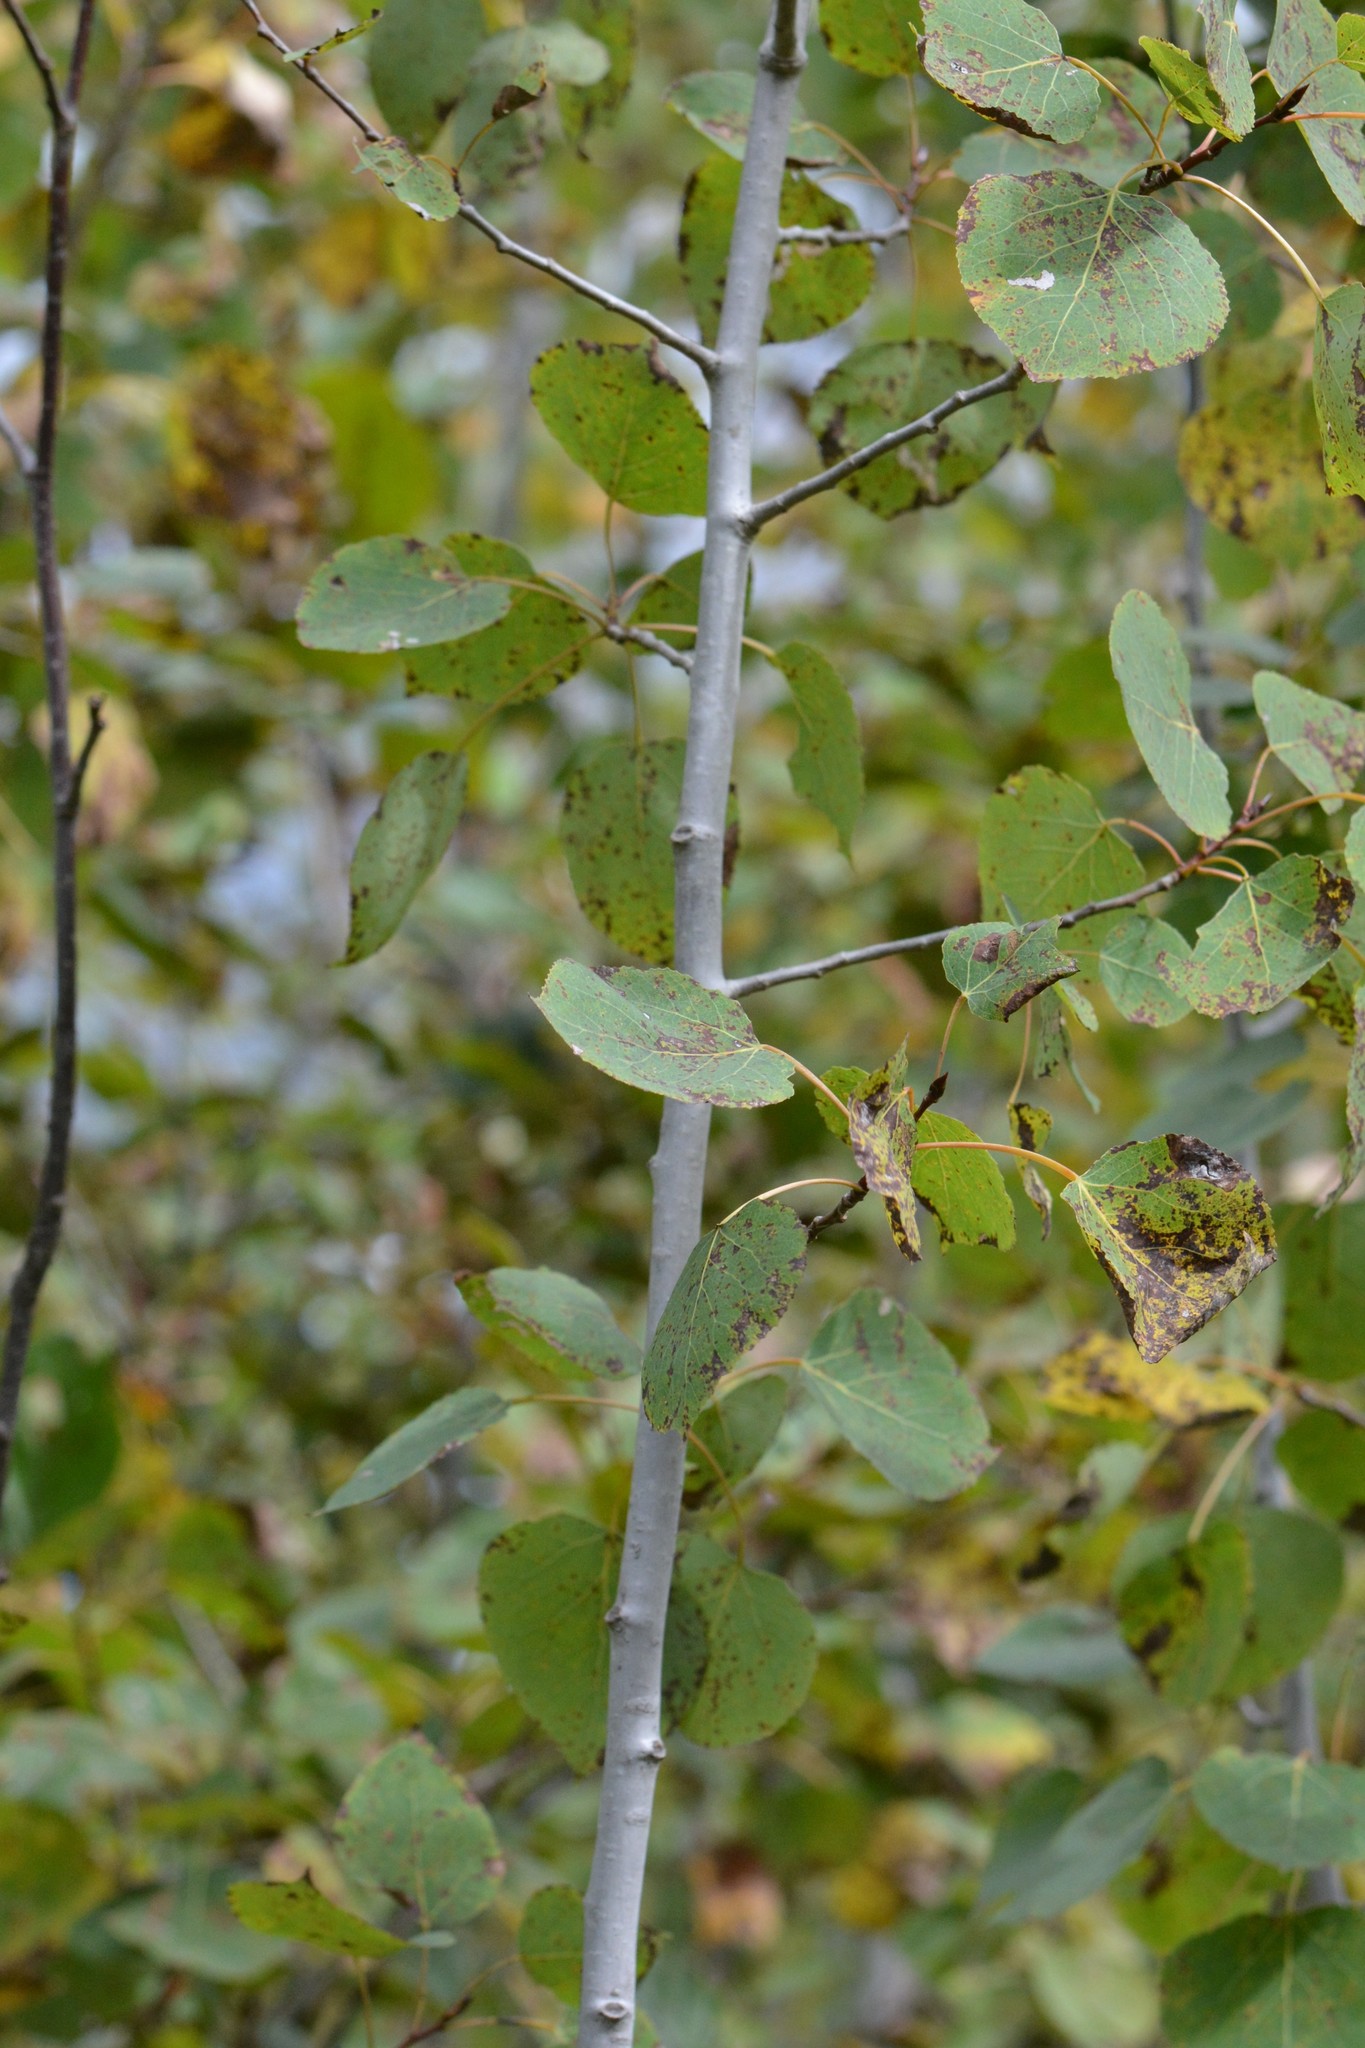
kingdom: Plantae
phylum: Tracheophyta
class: Magnoliopsida
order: Malpighiales
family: Salicaceae
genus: Populus
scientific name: Populus tremuloides
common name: Quaking aspen
